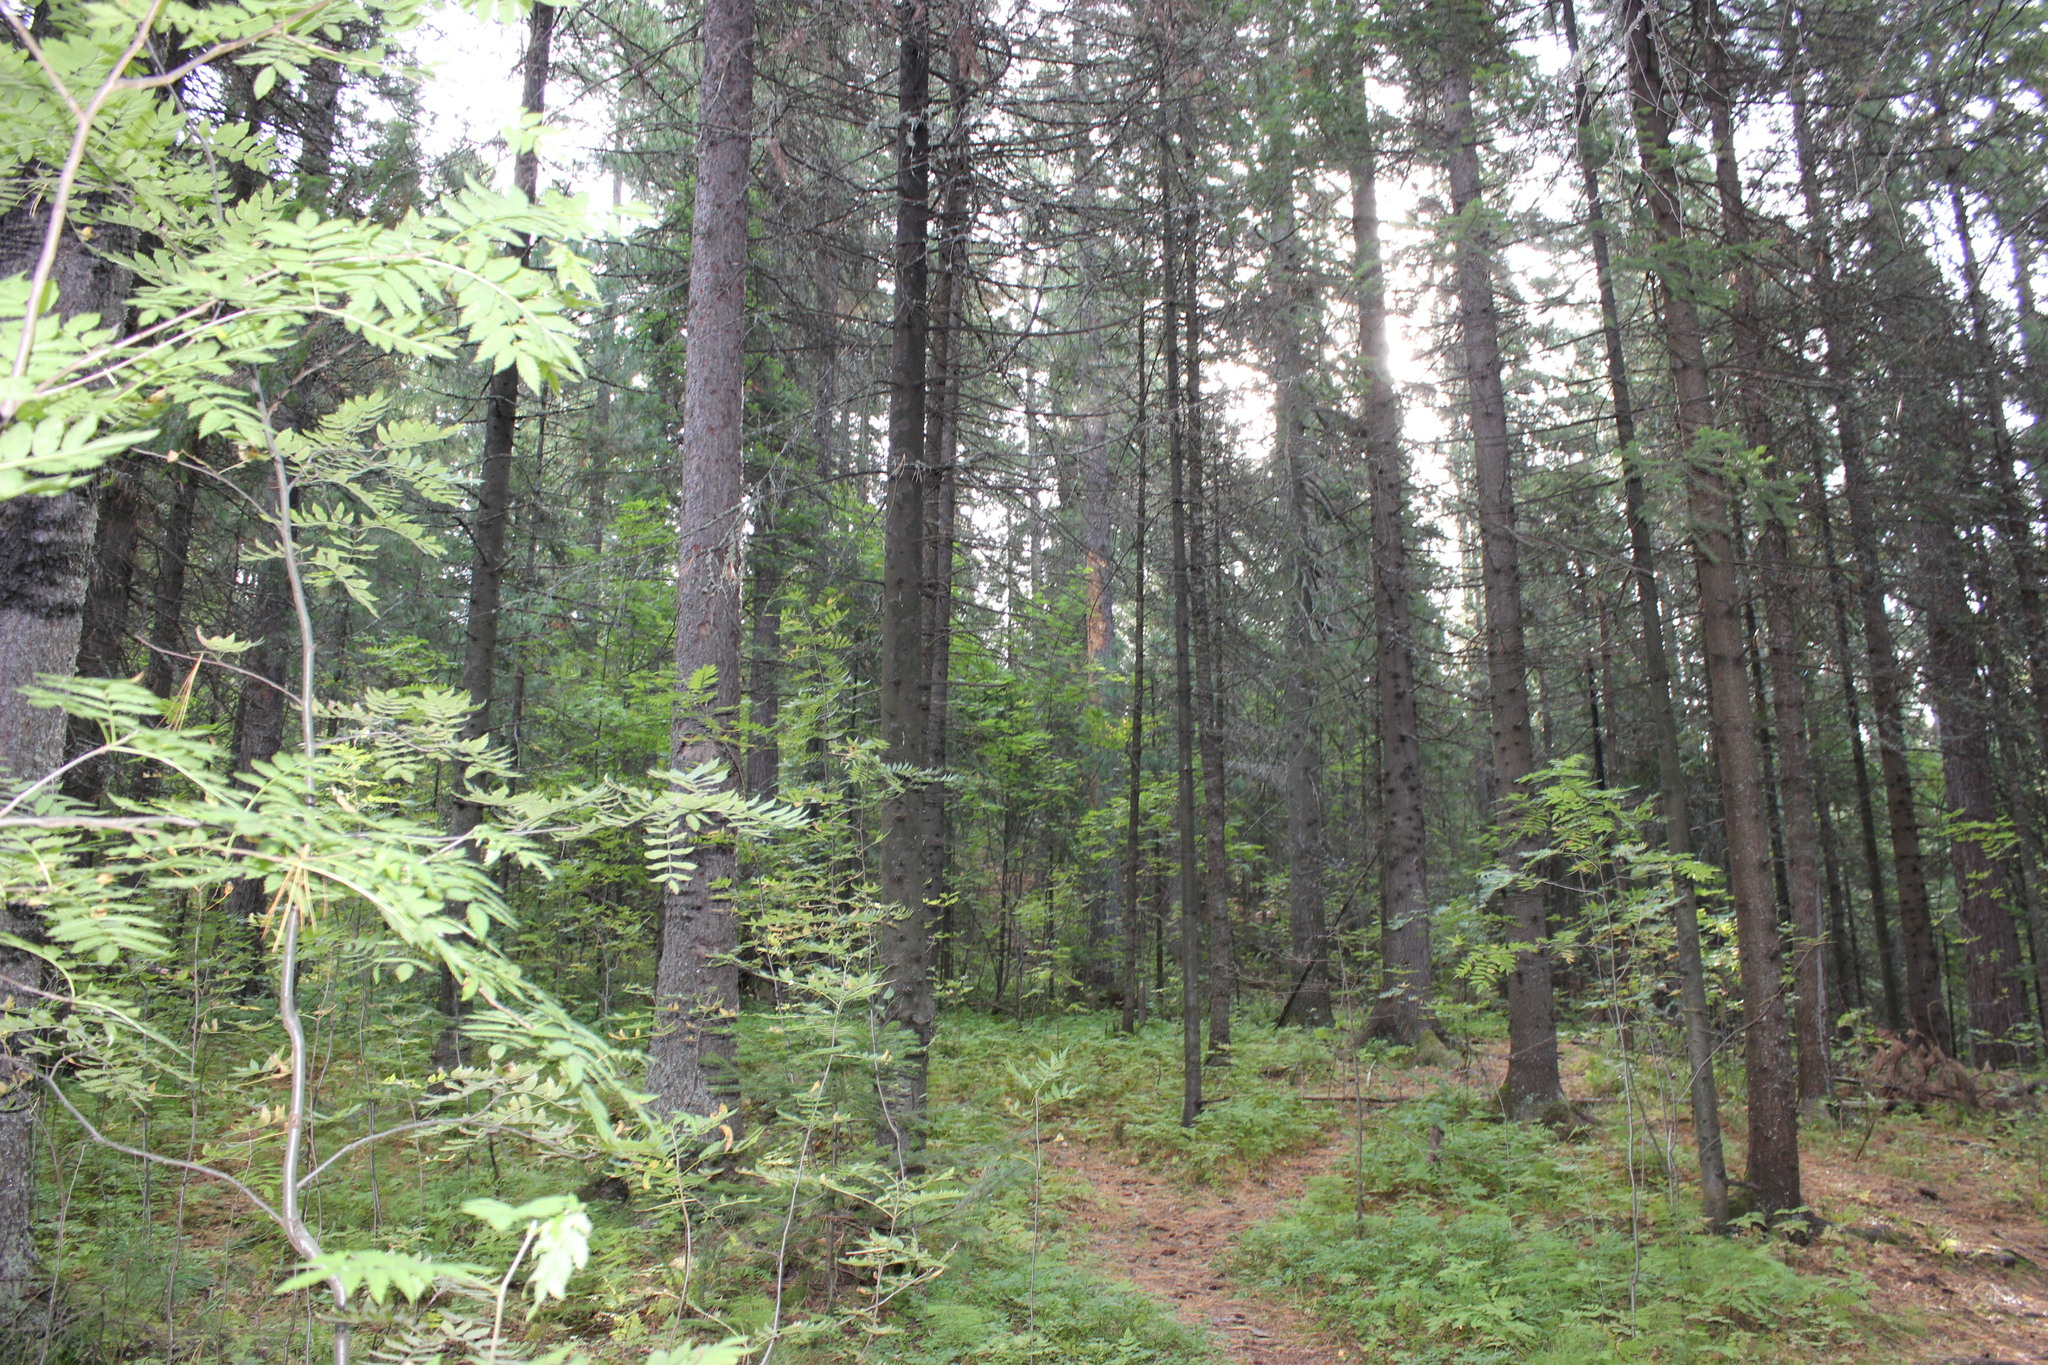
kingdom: Plantae
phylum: Tracheophyta
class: Magnoliopsida
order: Rosales
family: Rosaceae
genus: Sorbus
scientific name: Sorbus aucuparia
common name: Rowan
